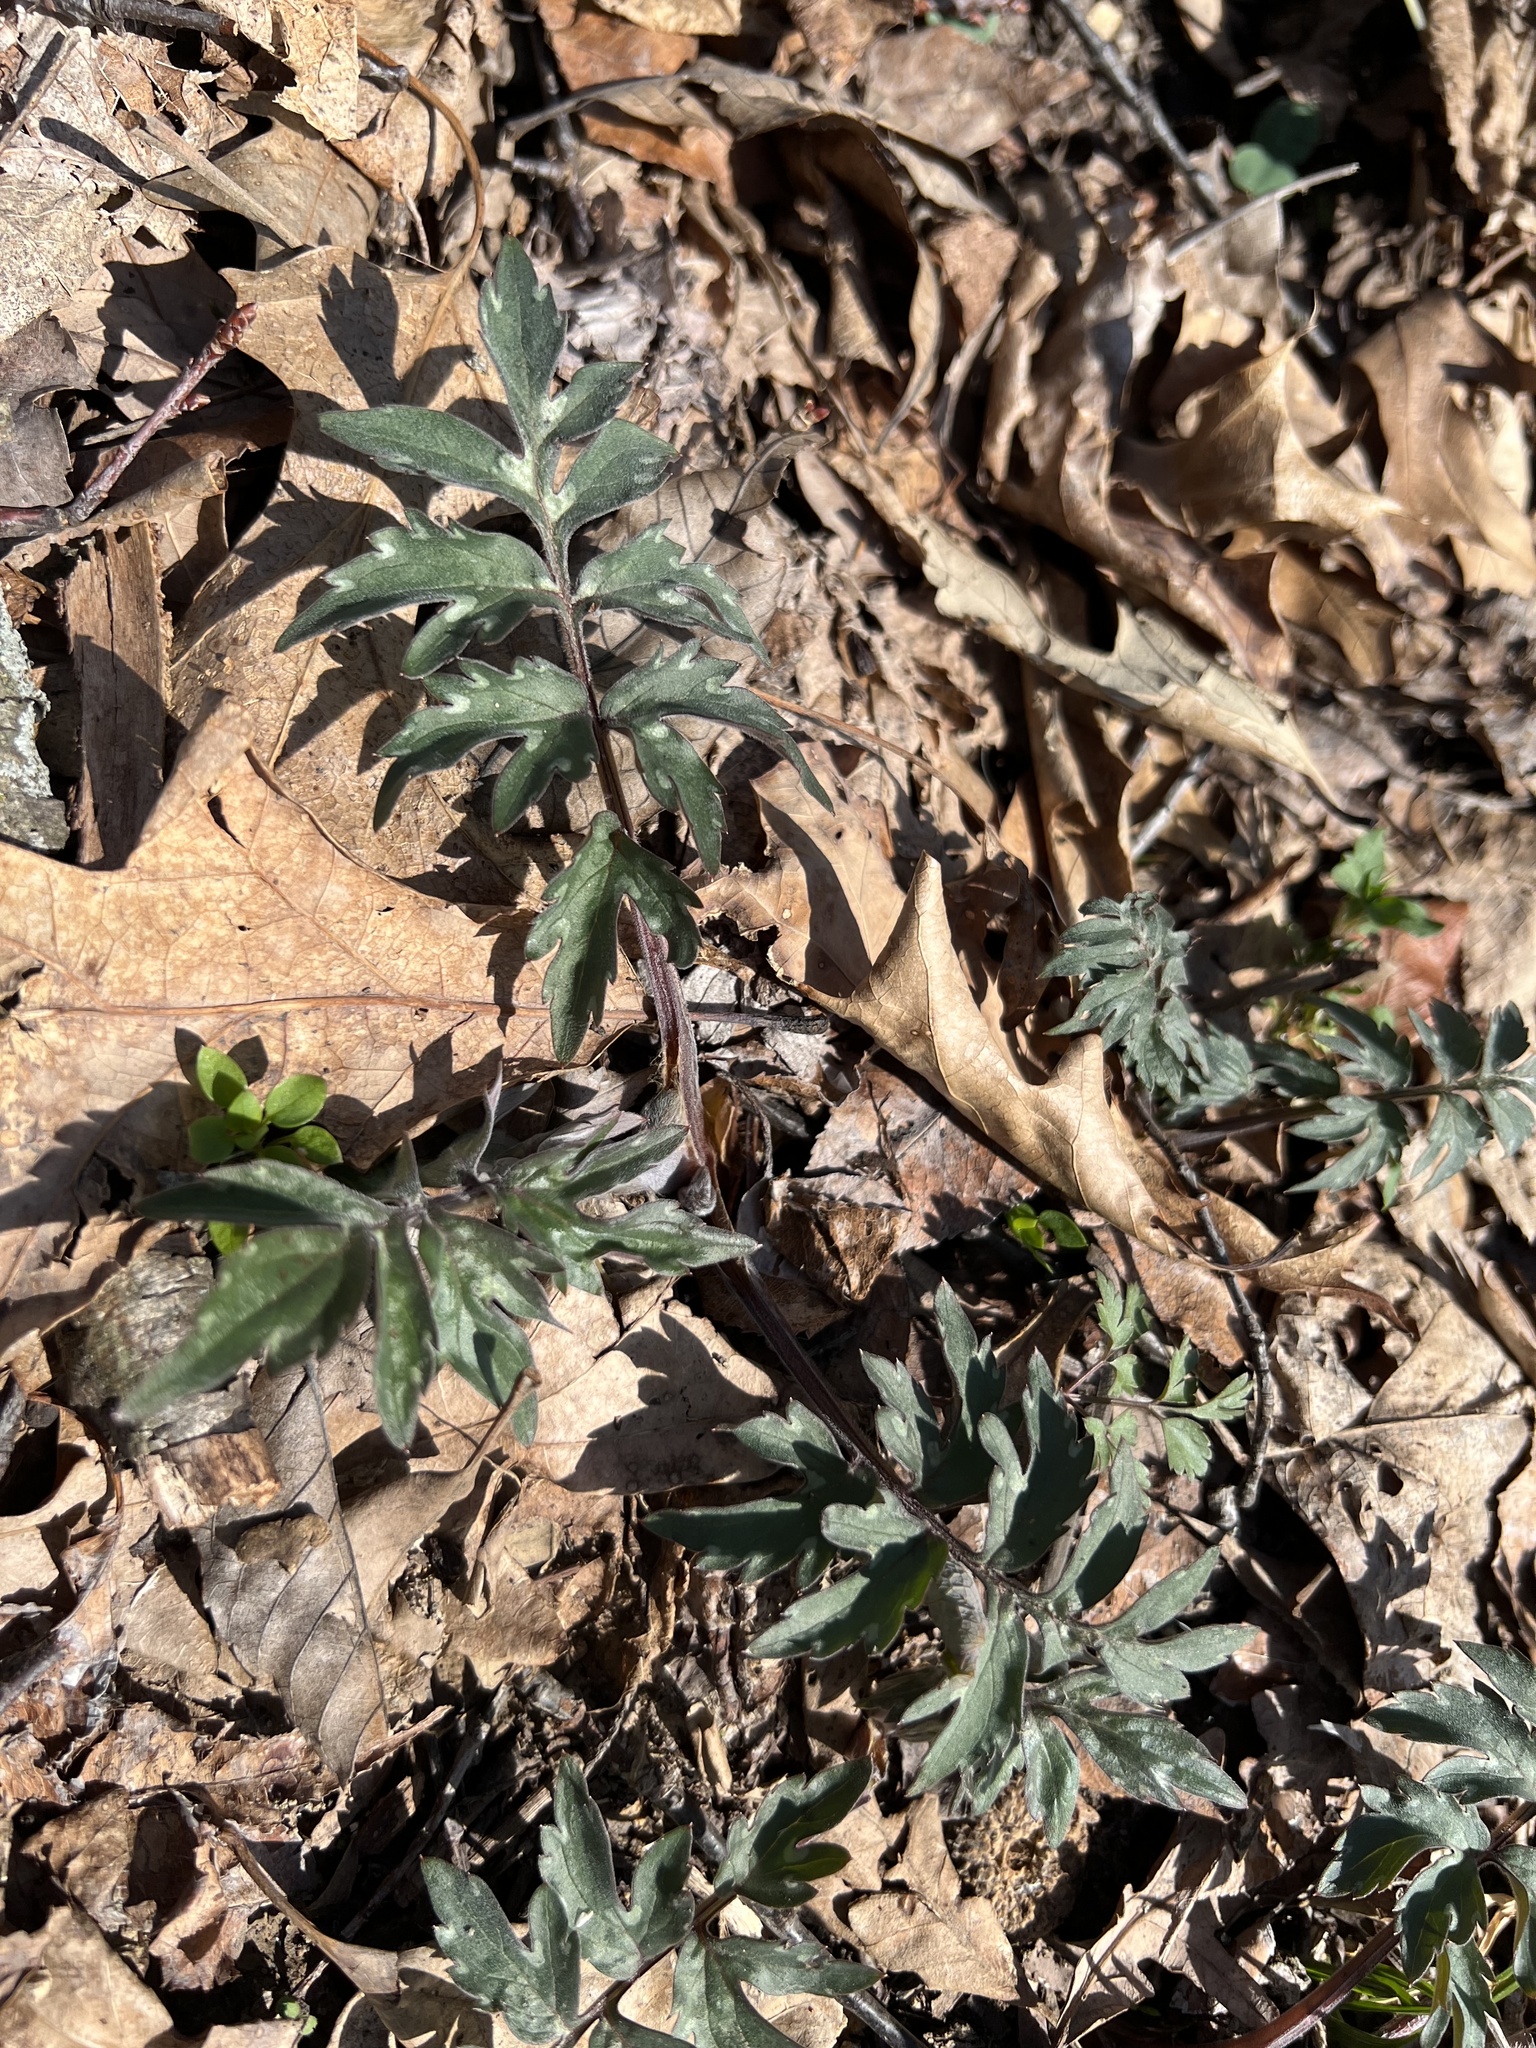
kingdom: Plantae
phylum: Tracheophyta
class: Magnoliopsida
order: Boraginales
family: Hydrophyllaceae
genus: Hydrophyllum
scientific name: Hydrophyllum virginianum
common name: Virginia waterleaf
